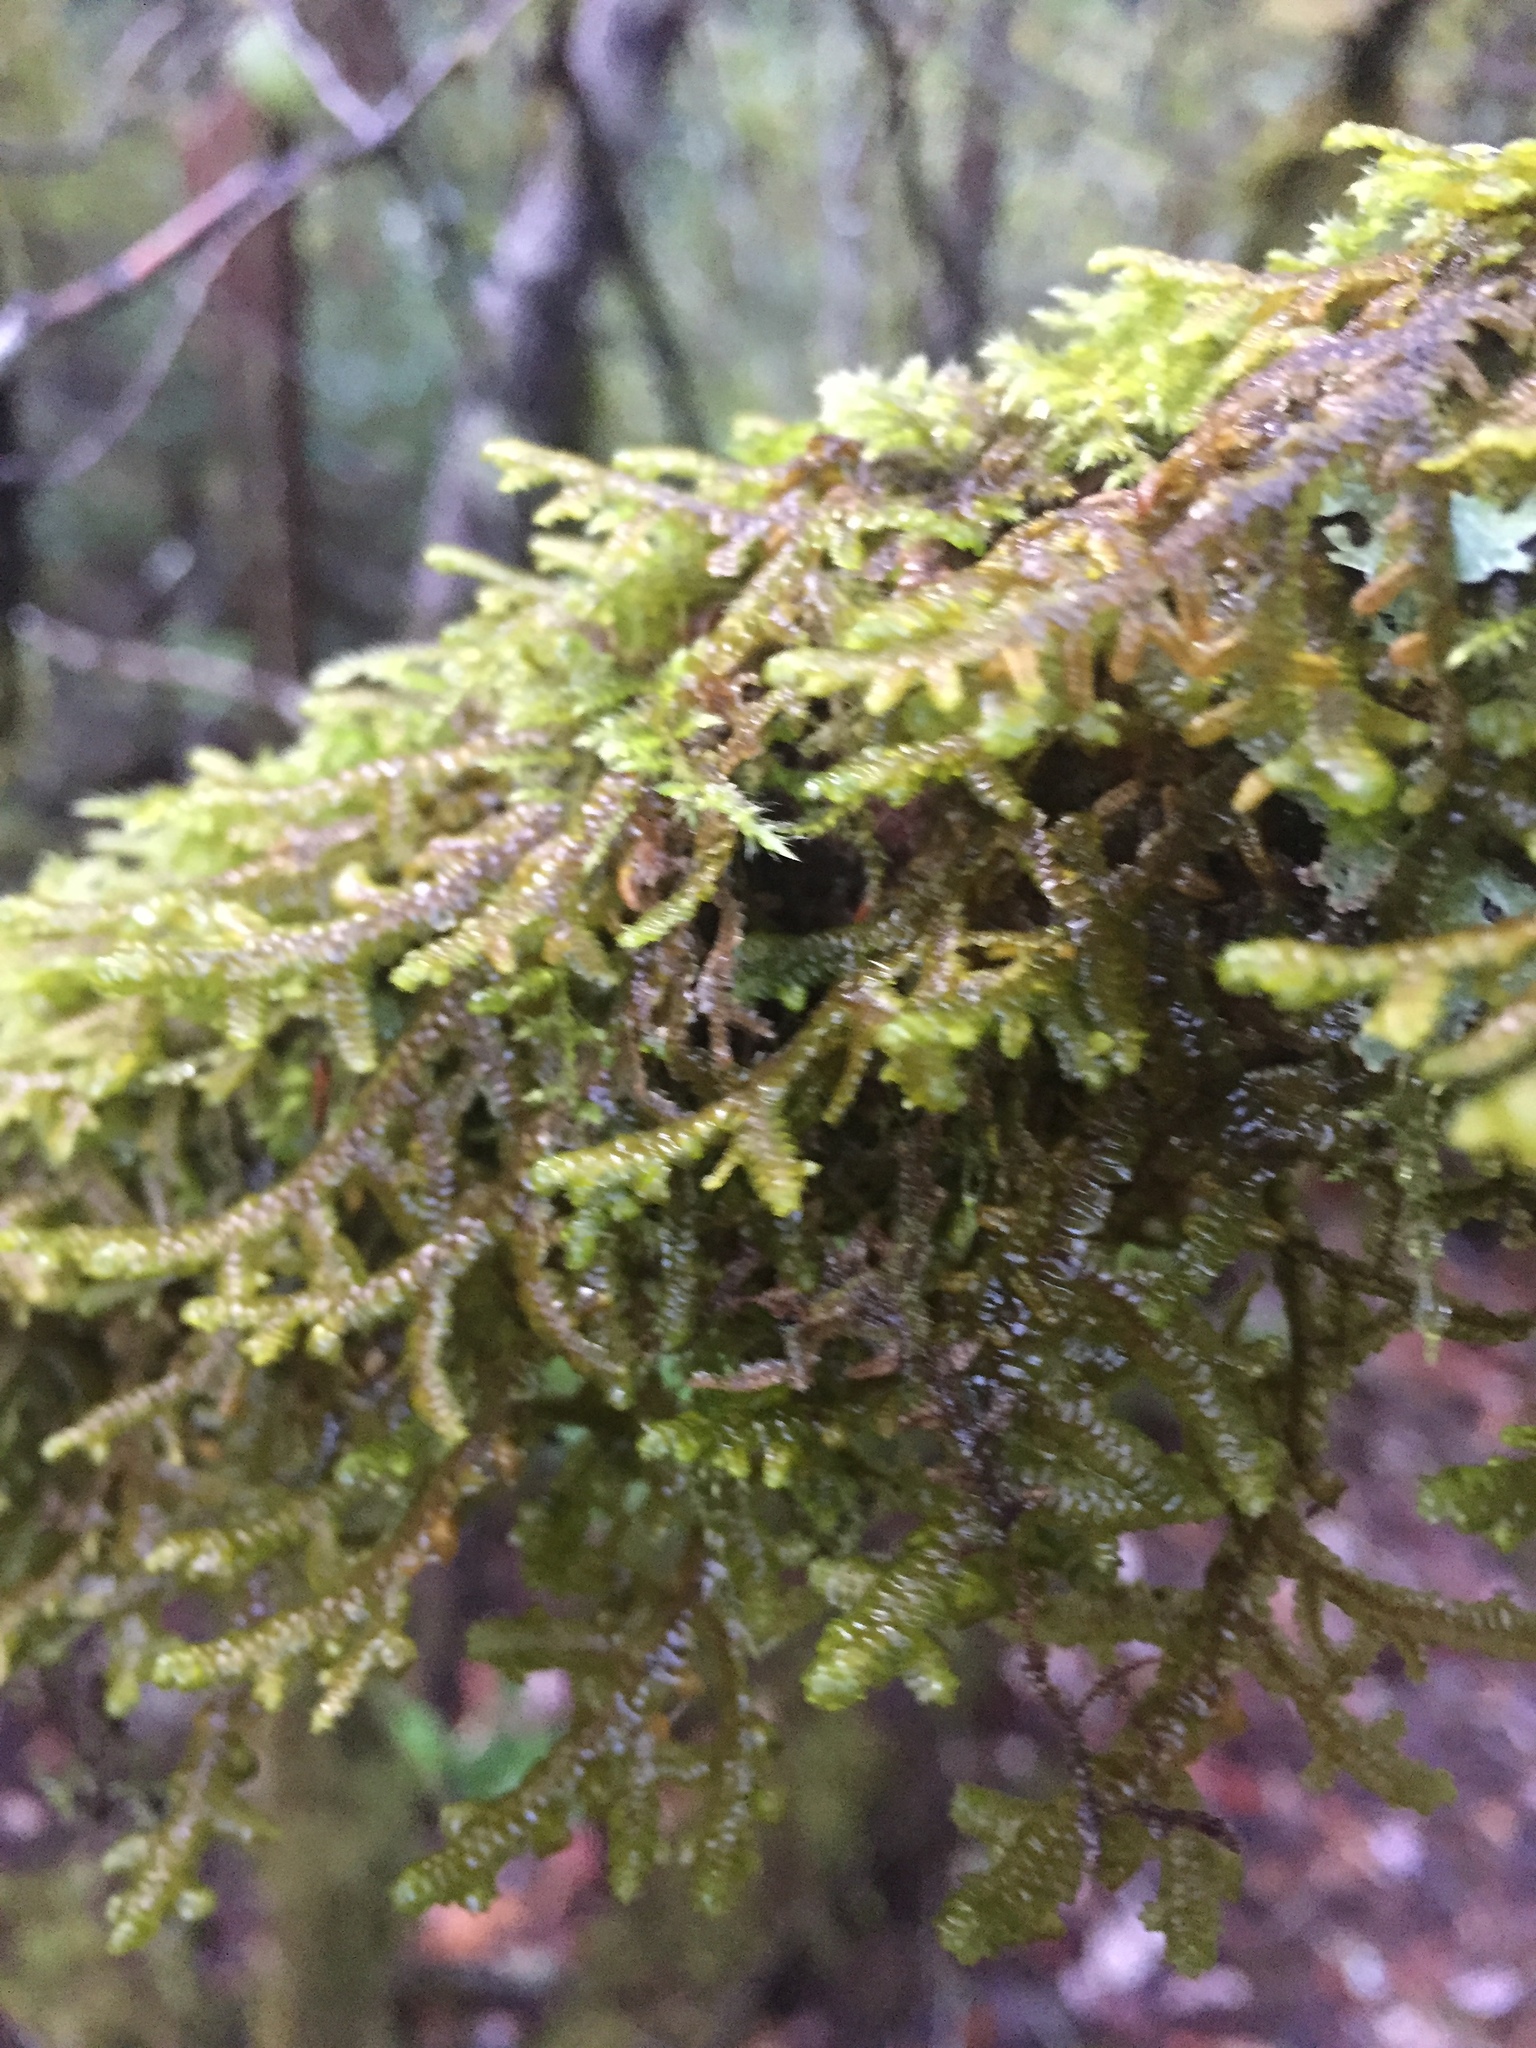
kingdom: Plantae
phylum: Marchantiophyta
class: Jungermanniopsida
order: Porellales
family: Porellaceae
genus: Porella
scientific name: Porella navicularis
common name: Tree ruffle liverwort
